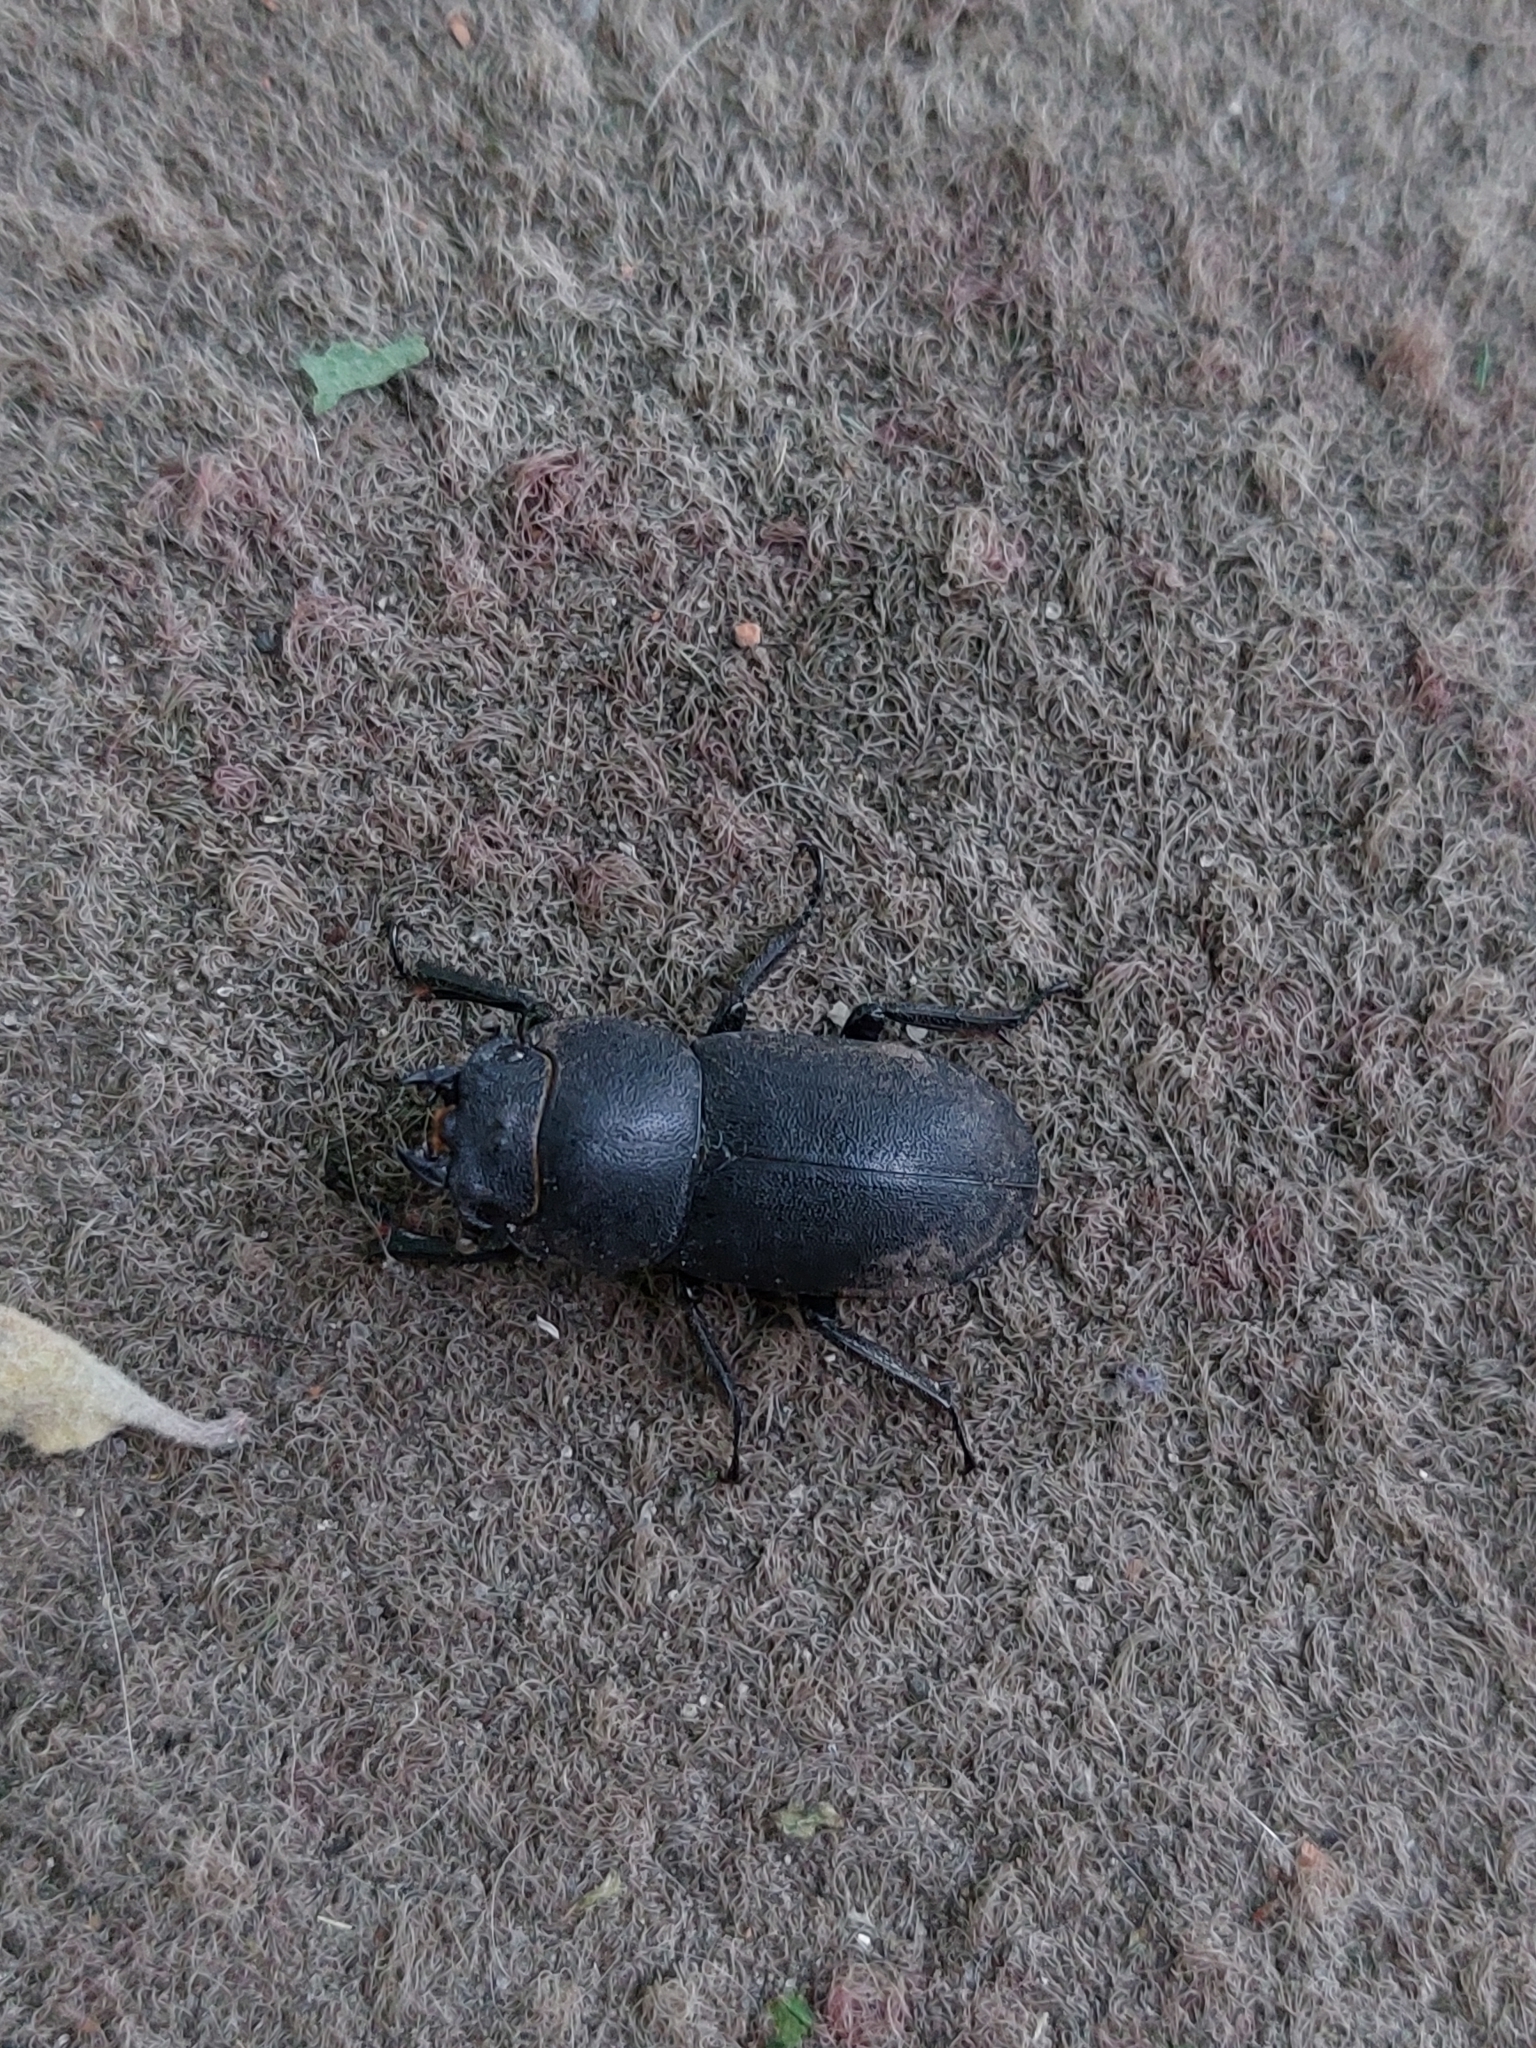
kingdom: Animalia
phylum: Arthropoda
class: Insecta
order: Coleoptera
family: Lucanidae
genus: Dorcus
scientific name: Dorcus parallelipipedus
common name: Lesser stag beetle
